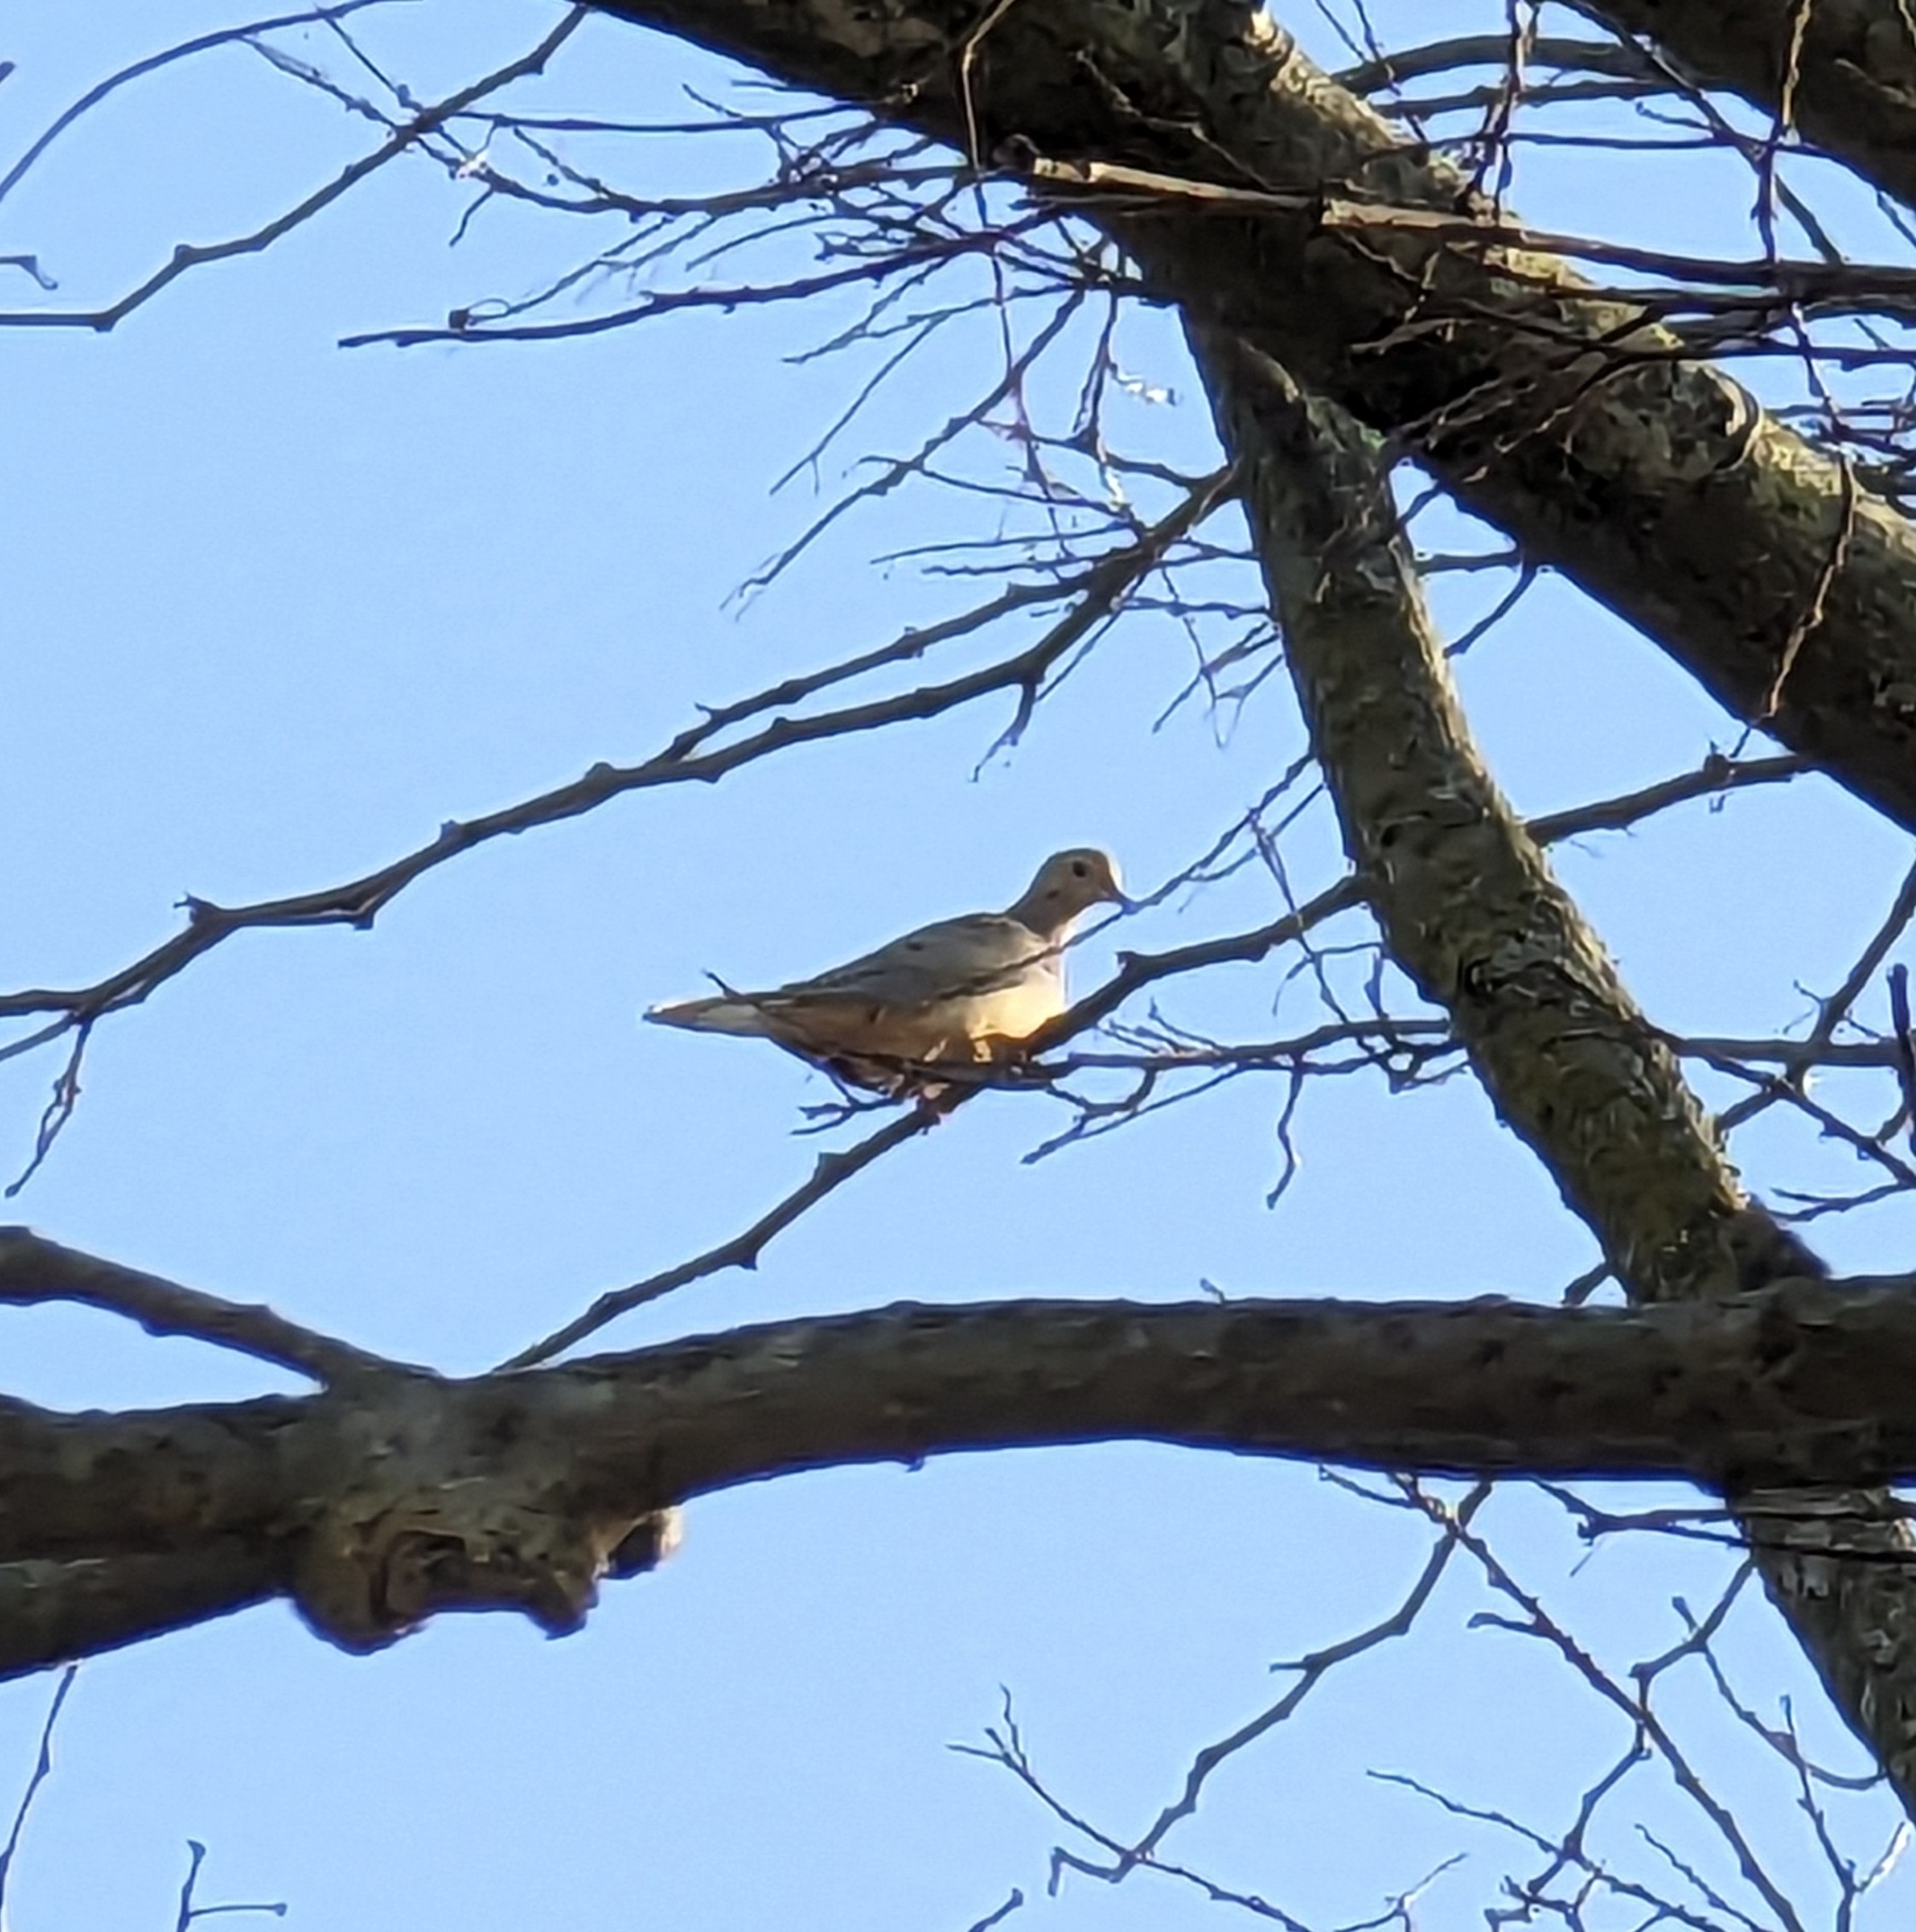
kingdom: Animalia
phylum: Chordata
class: Aves
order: Columbiformes
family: Columbidae
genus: Zenaida
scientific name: Zenaida macroura
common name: Mourning dove
